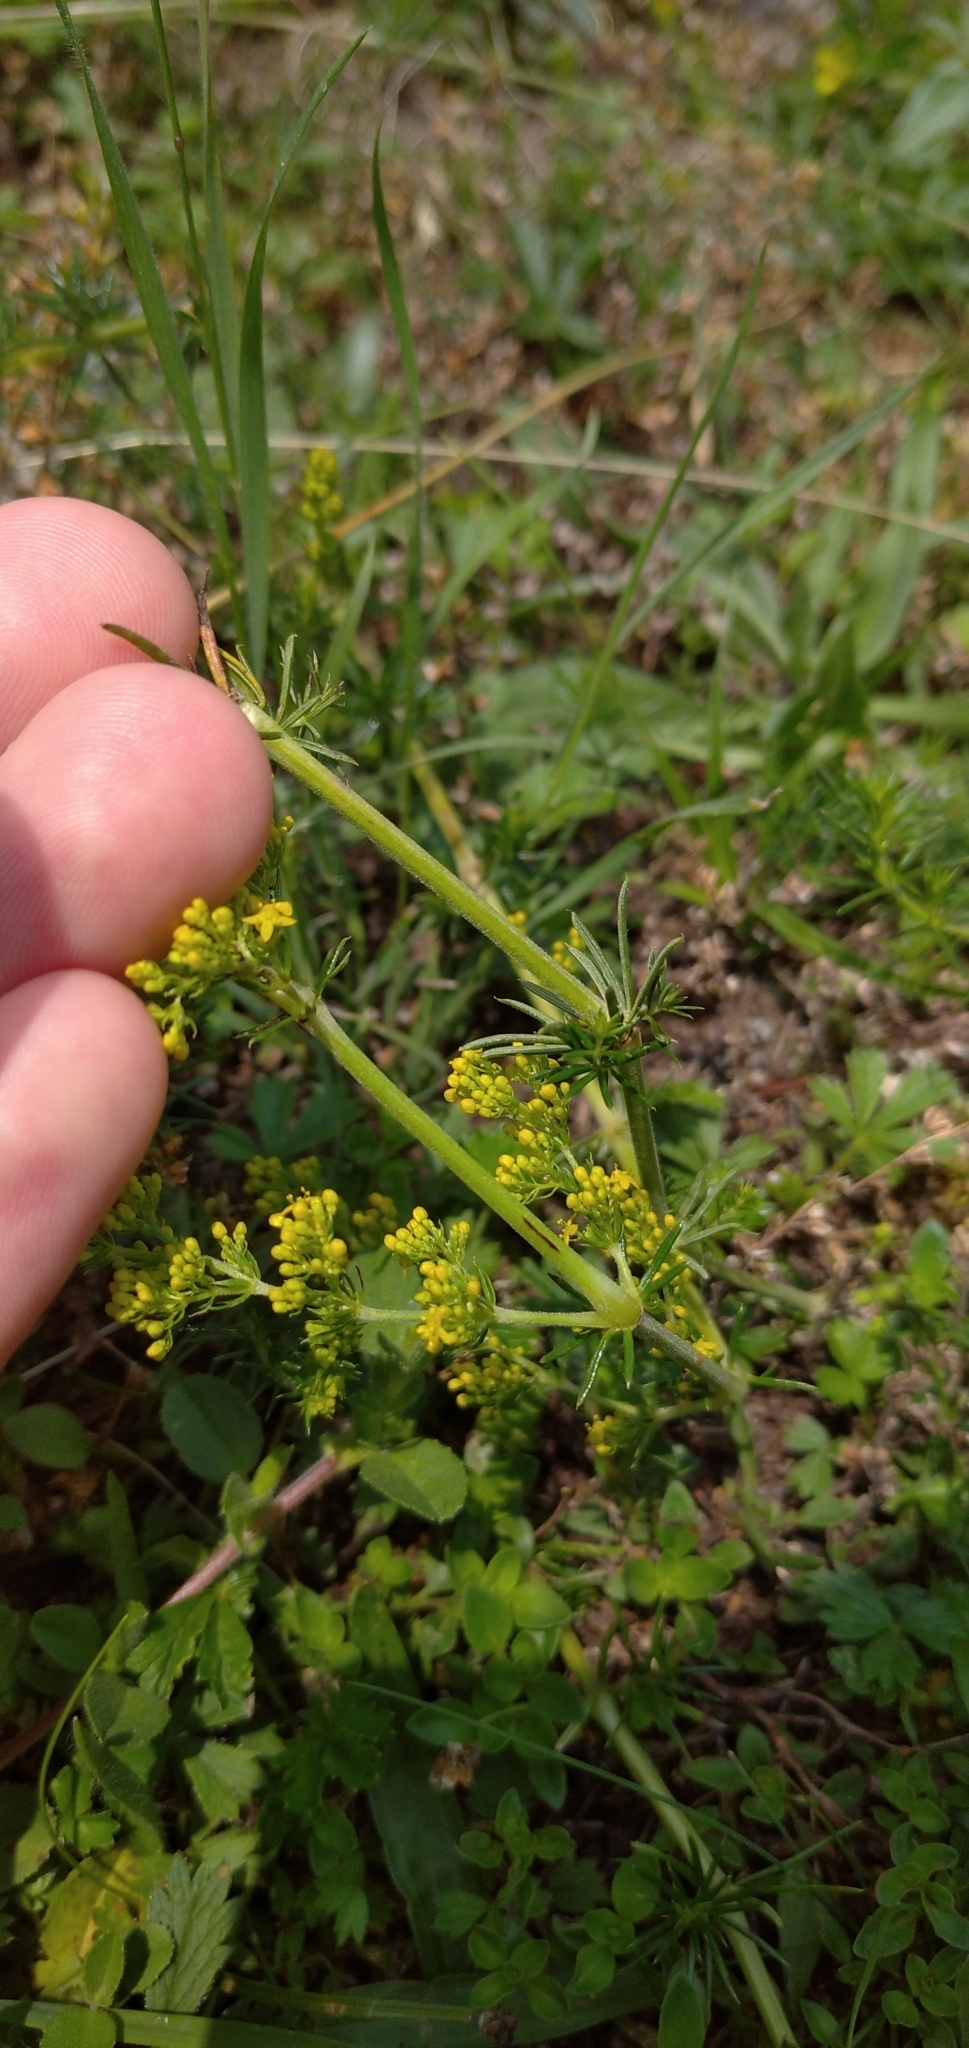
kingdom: Plantae
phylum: Tracheophyta
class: Magnoliopsida
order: Gentianales
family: Rubiaceae
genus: Galium
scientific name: Galium verum
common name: Lady's bedstraw
